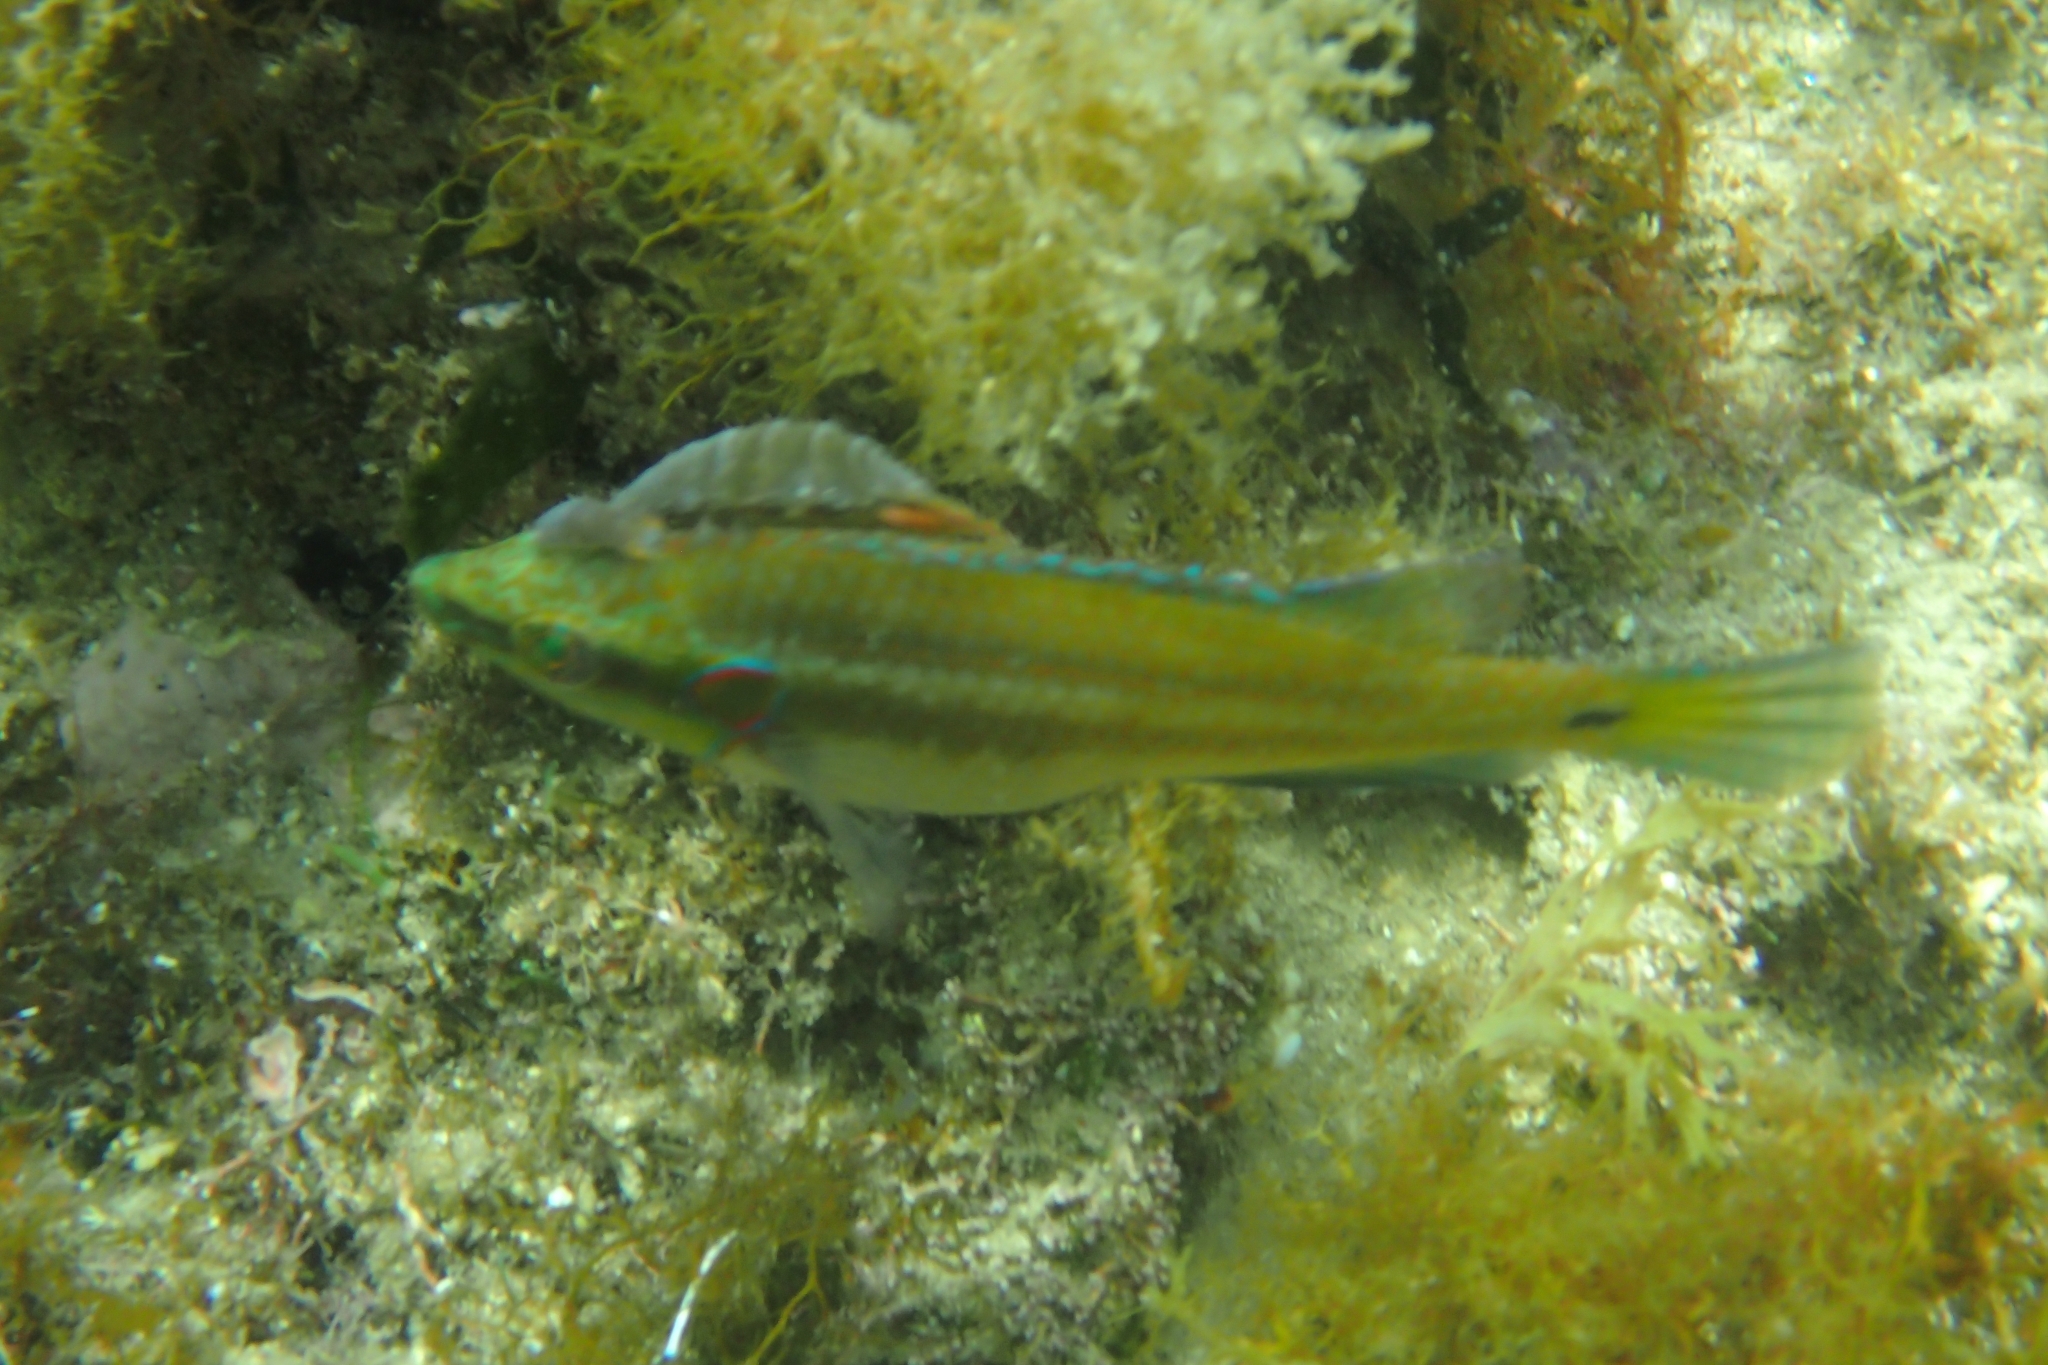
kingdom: Animalia
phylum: Chordata
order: Perciformes
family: Labridae
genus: Symphodus
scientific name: Symphodus ocellatus
